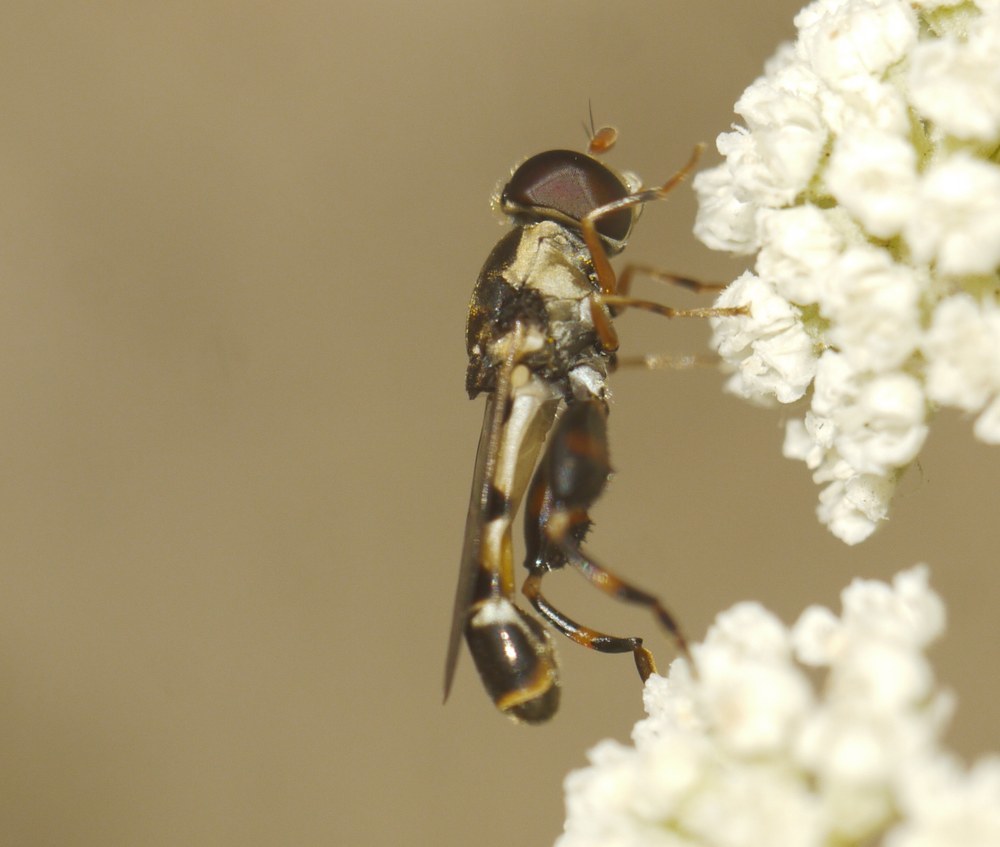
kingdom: Animalia
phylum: Arthropoda
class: Insecta
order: Diptera
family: Syrphidae
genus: Syritta
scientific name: Syritta pipiens
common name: Hover fly
